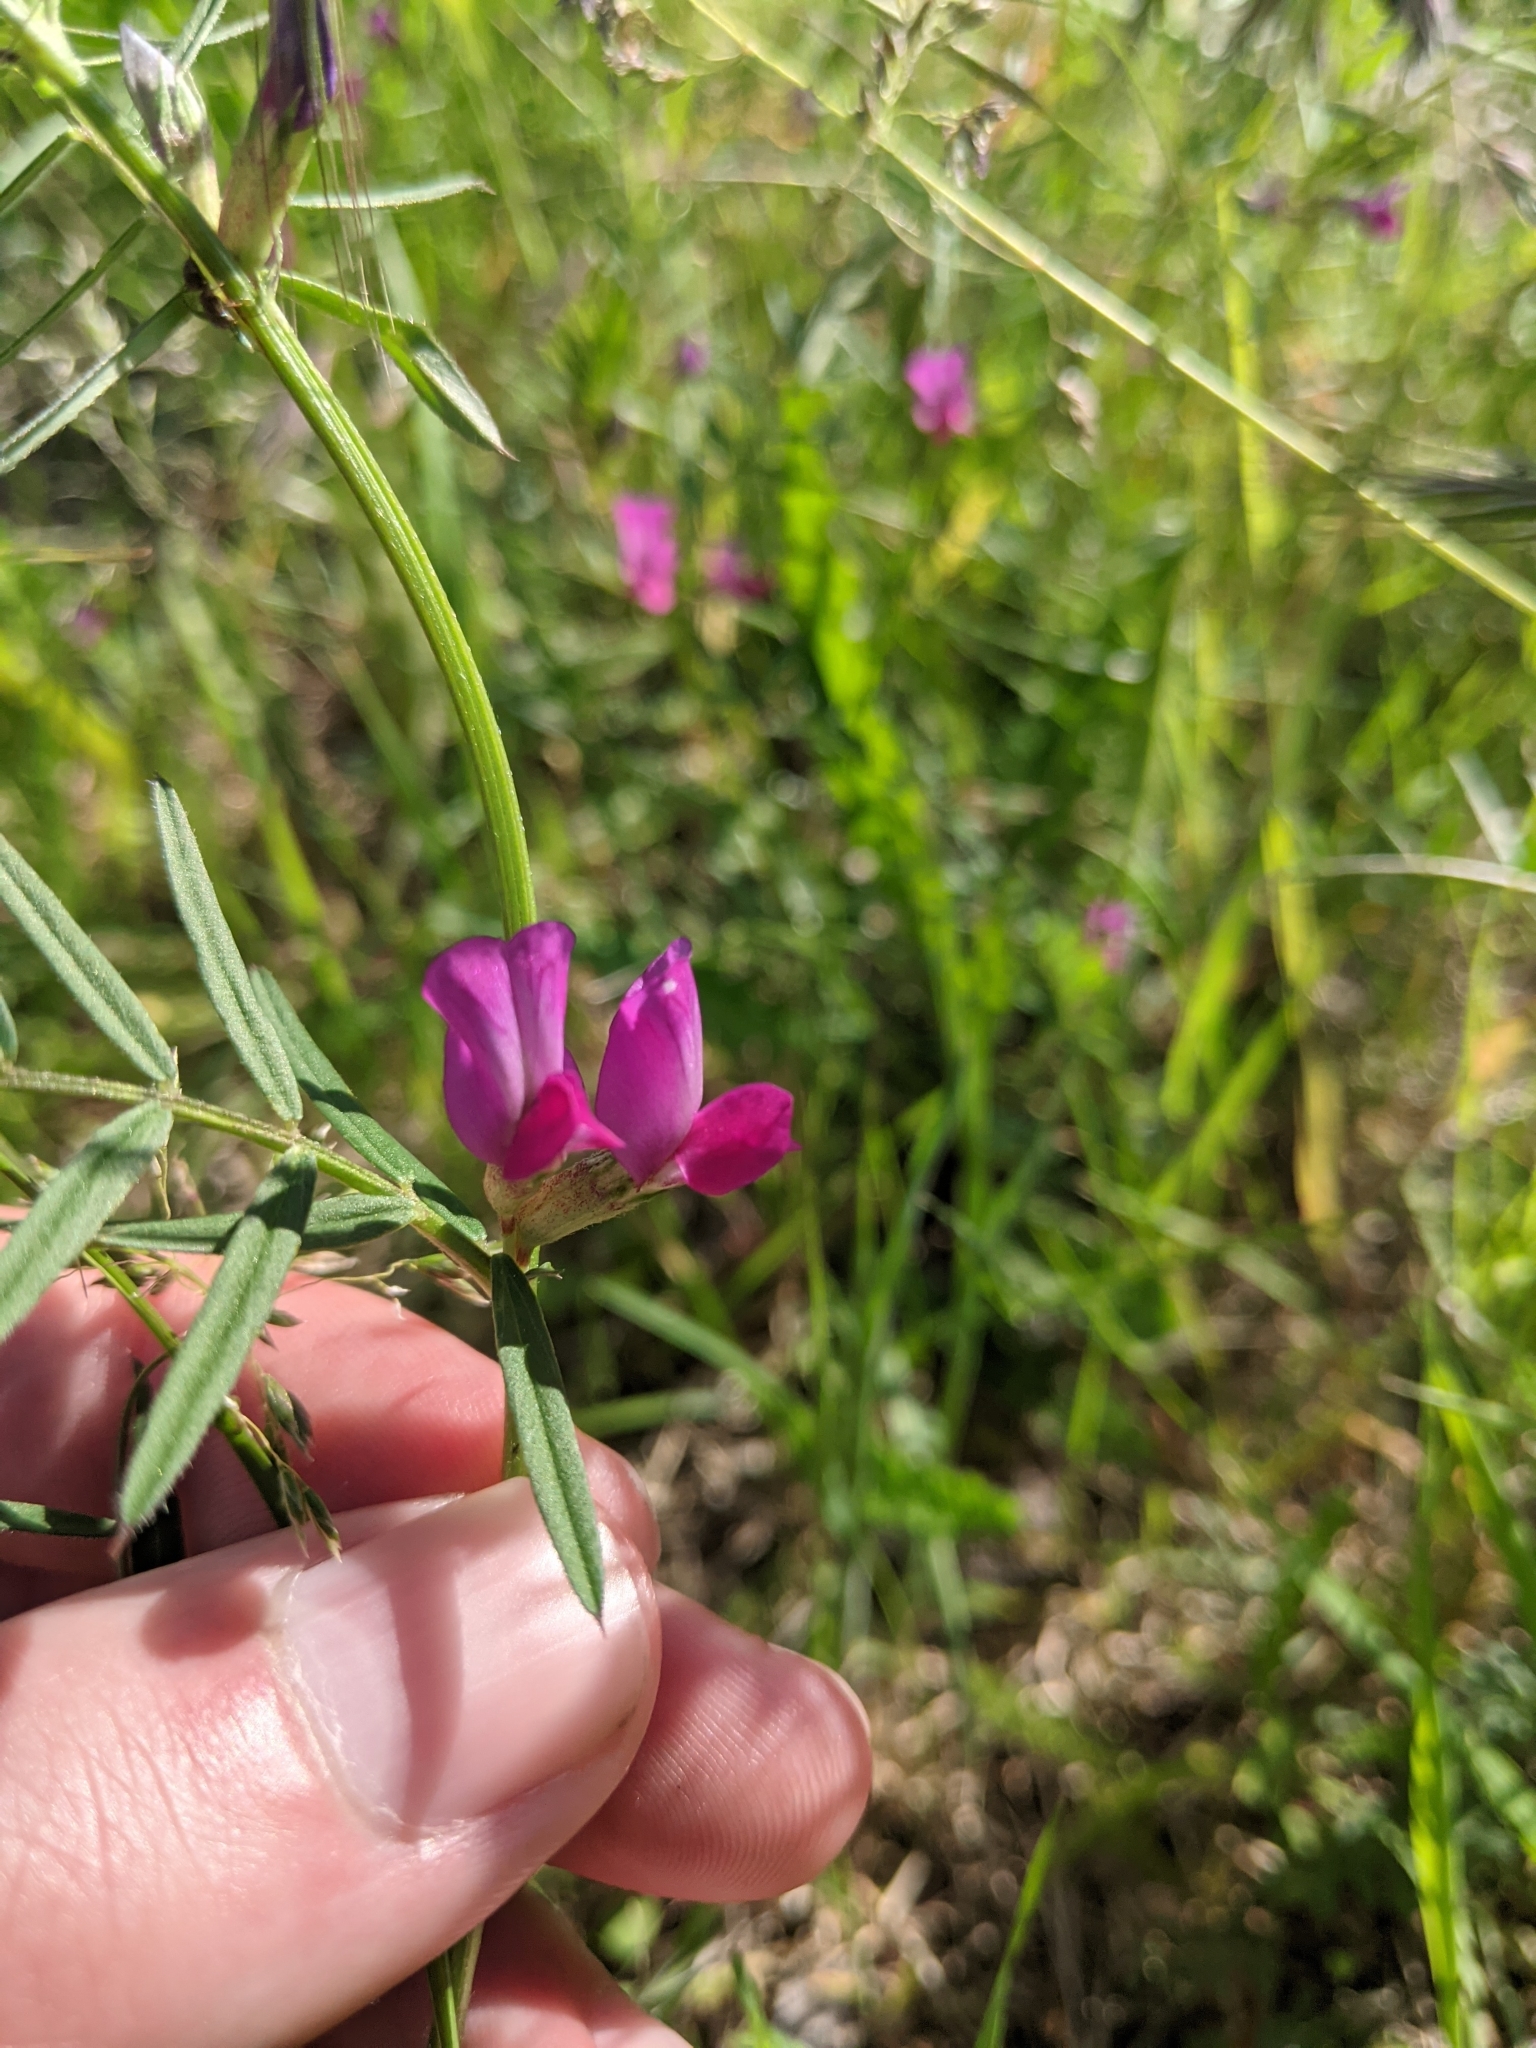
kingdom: Plantae
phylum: Tracheophyta
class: Magnoliopsida
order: Fabales
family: Fabaceae
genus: Vicia
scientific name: Vicia sativa
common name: Garden vetch
